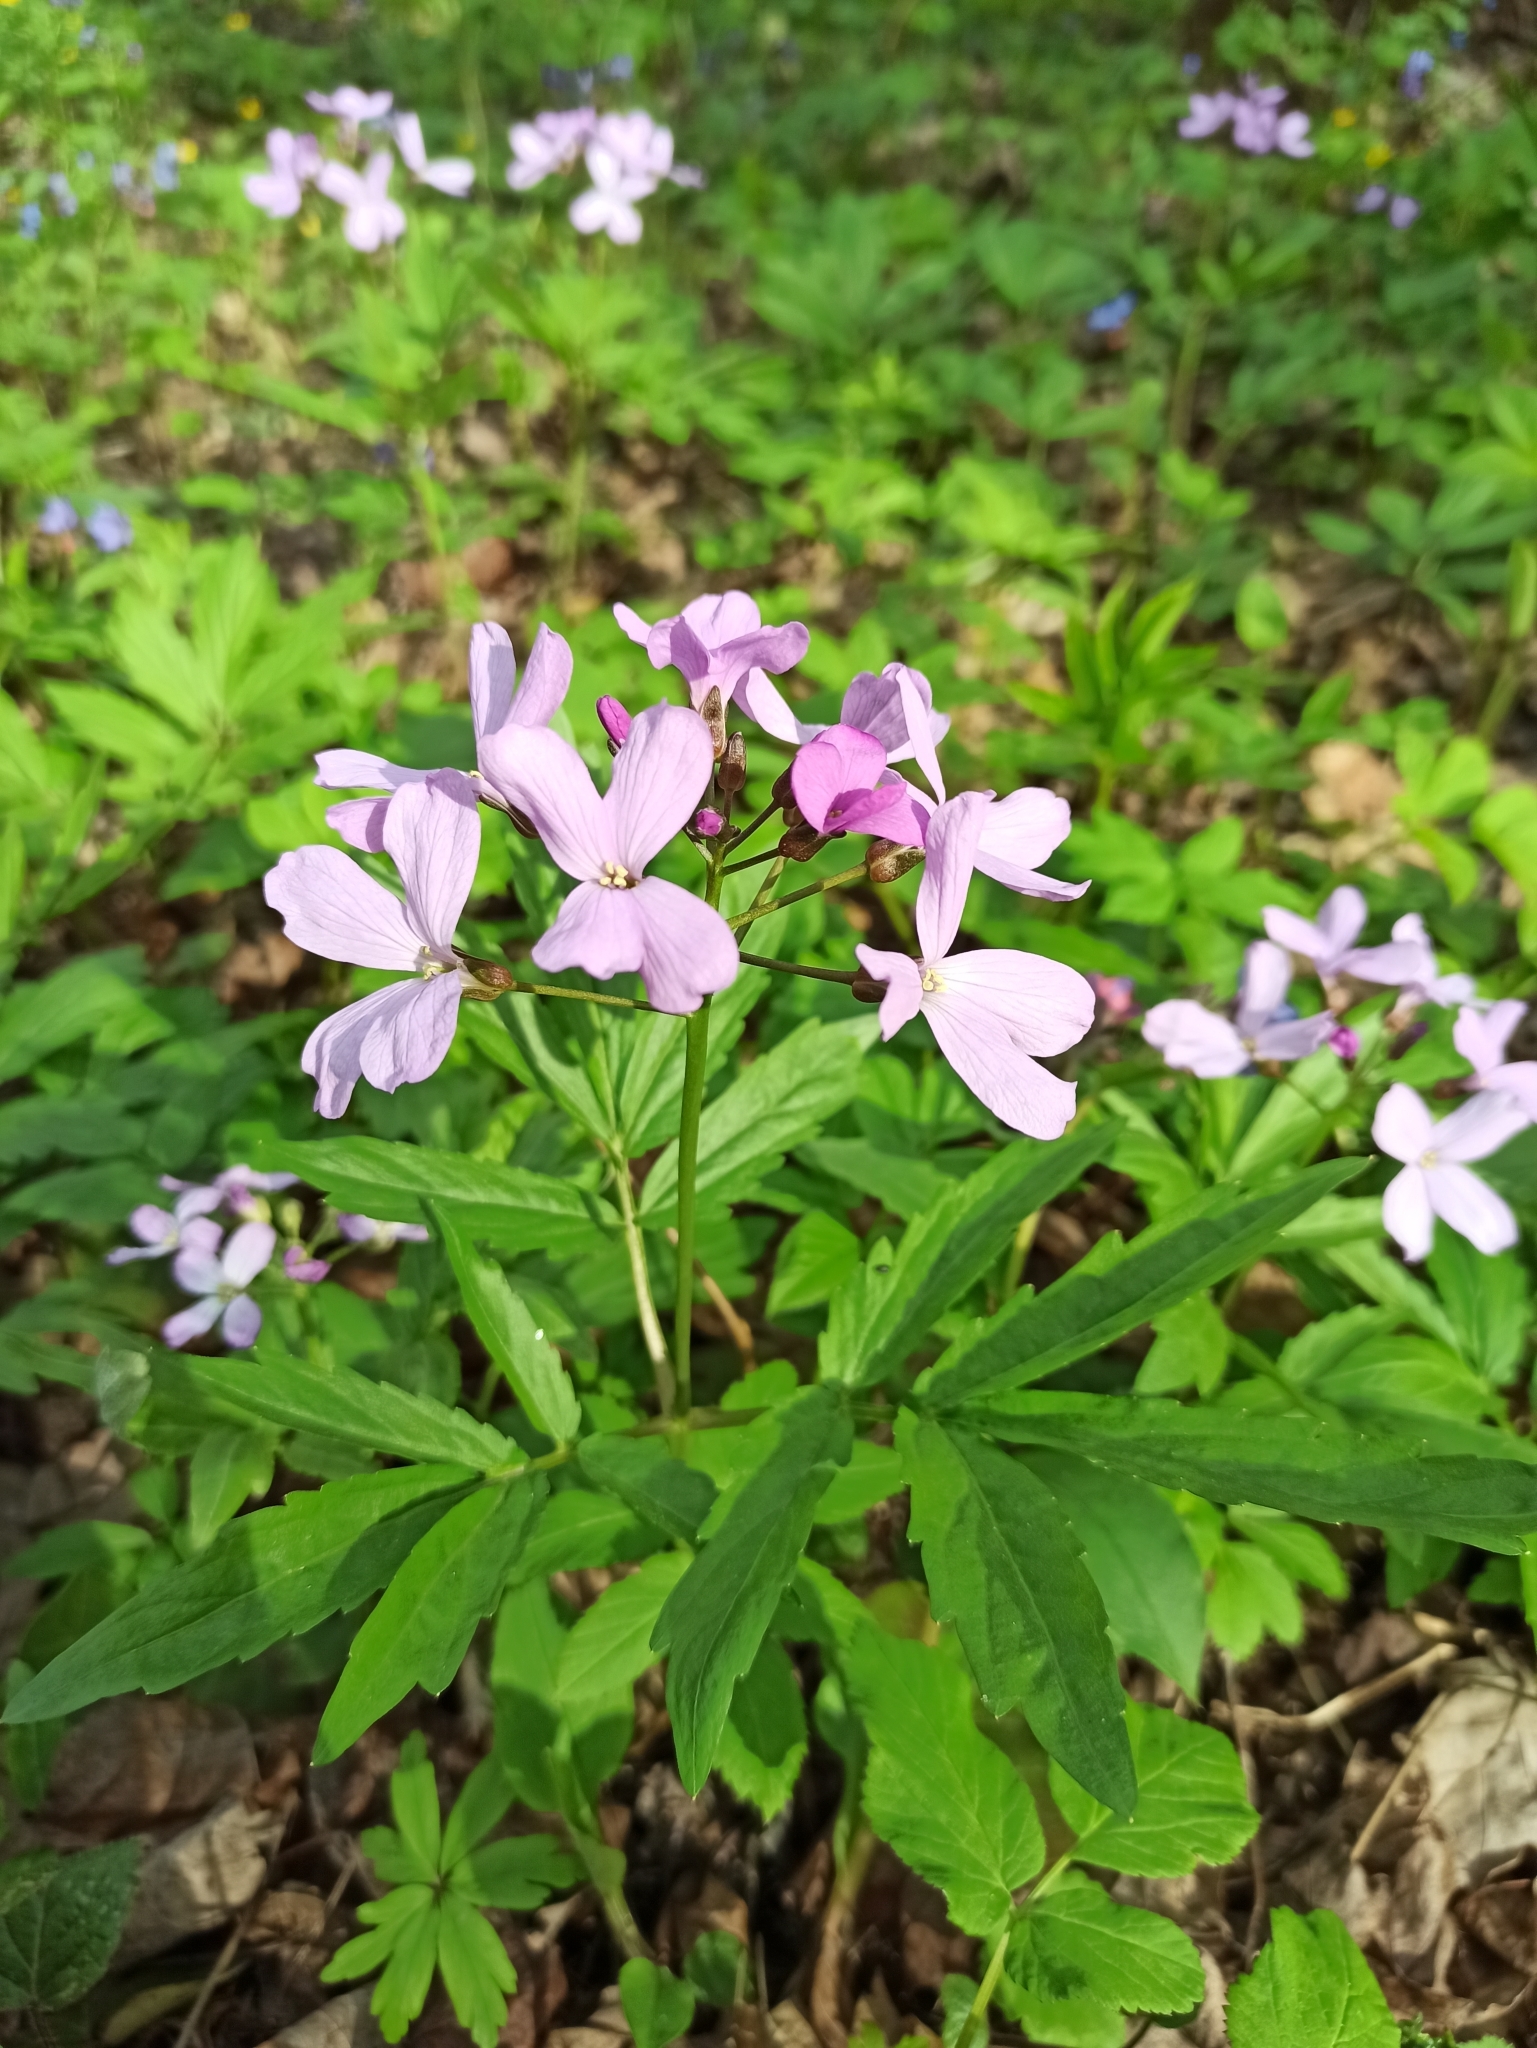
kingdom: Plantae
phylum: Tracheophyta
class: Magnoliopsida
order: Brassicales
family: Brassicaceae
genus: Cardamine
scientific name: Cardamine quinquefolia
